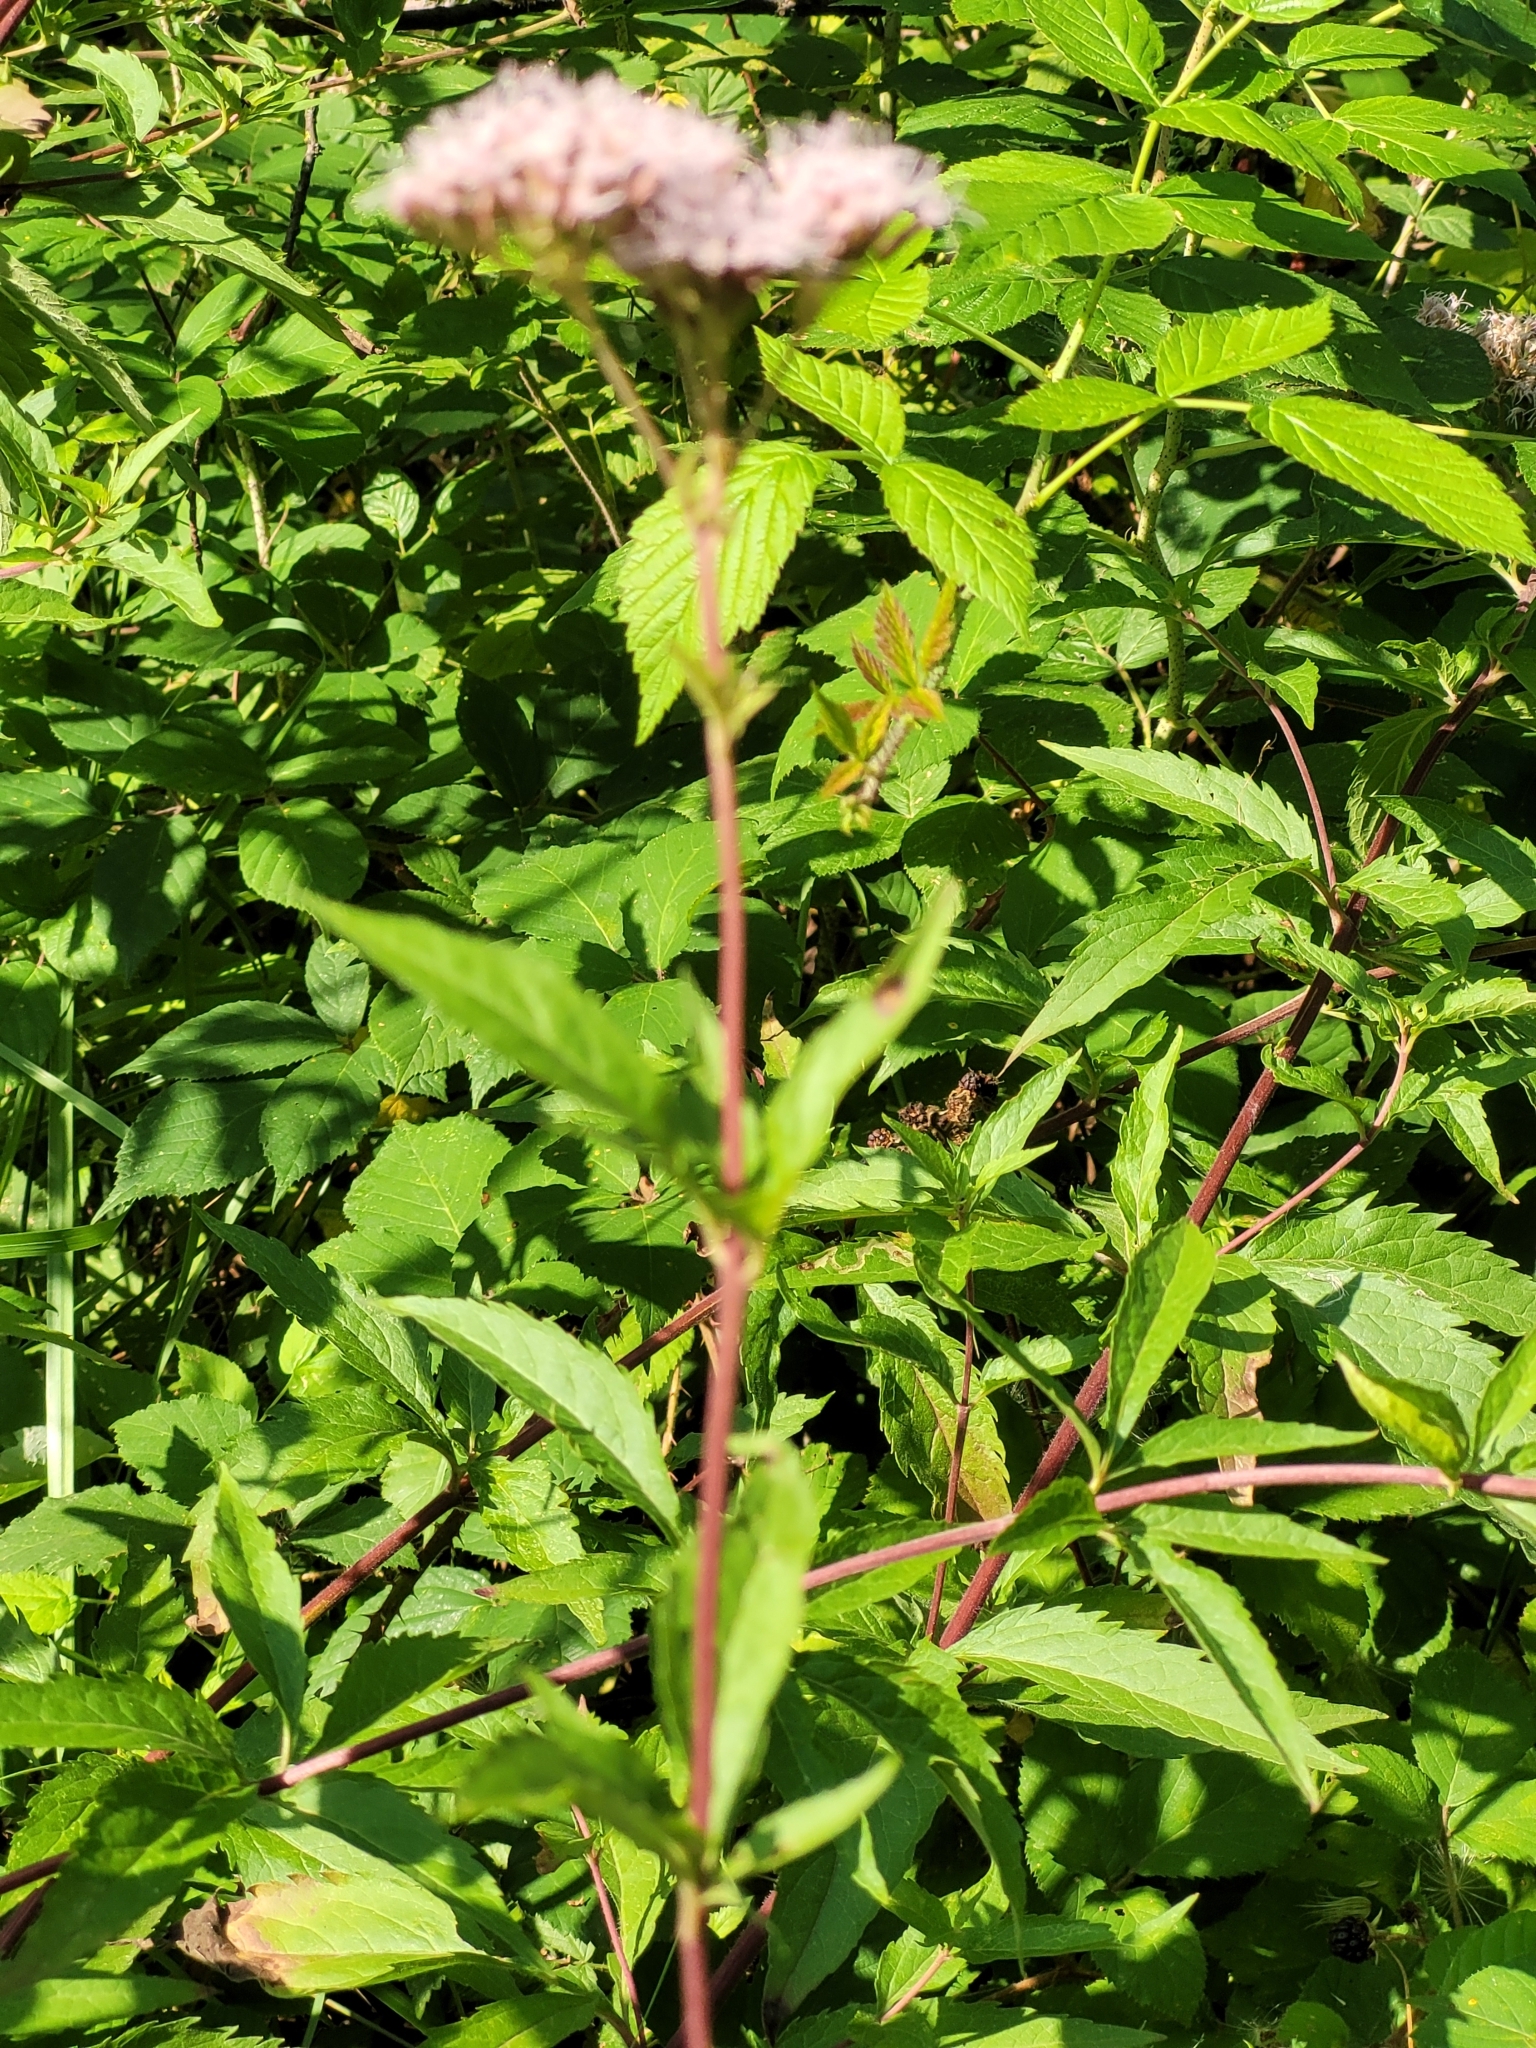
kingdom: Plantae
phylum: Tracheophyta
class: Magnoliopsida
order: Asterales
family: Asteraceae
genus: Eupatorium
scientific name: Eupatorium cannabinum
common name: Hemp-agrimony
